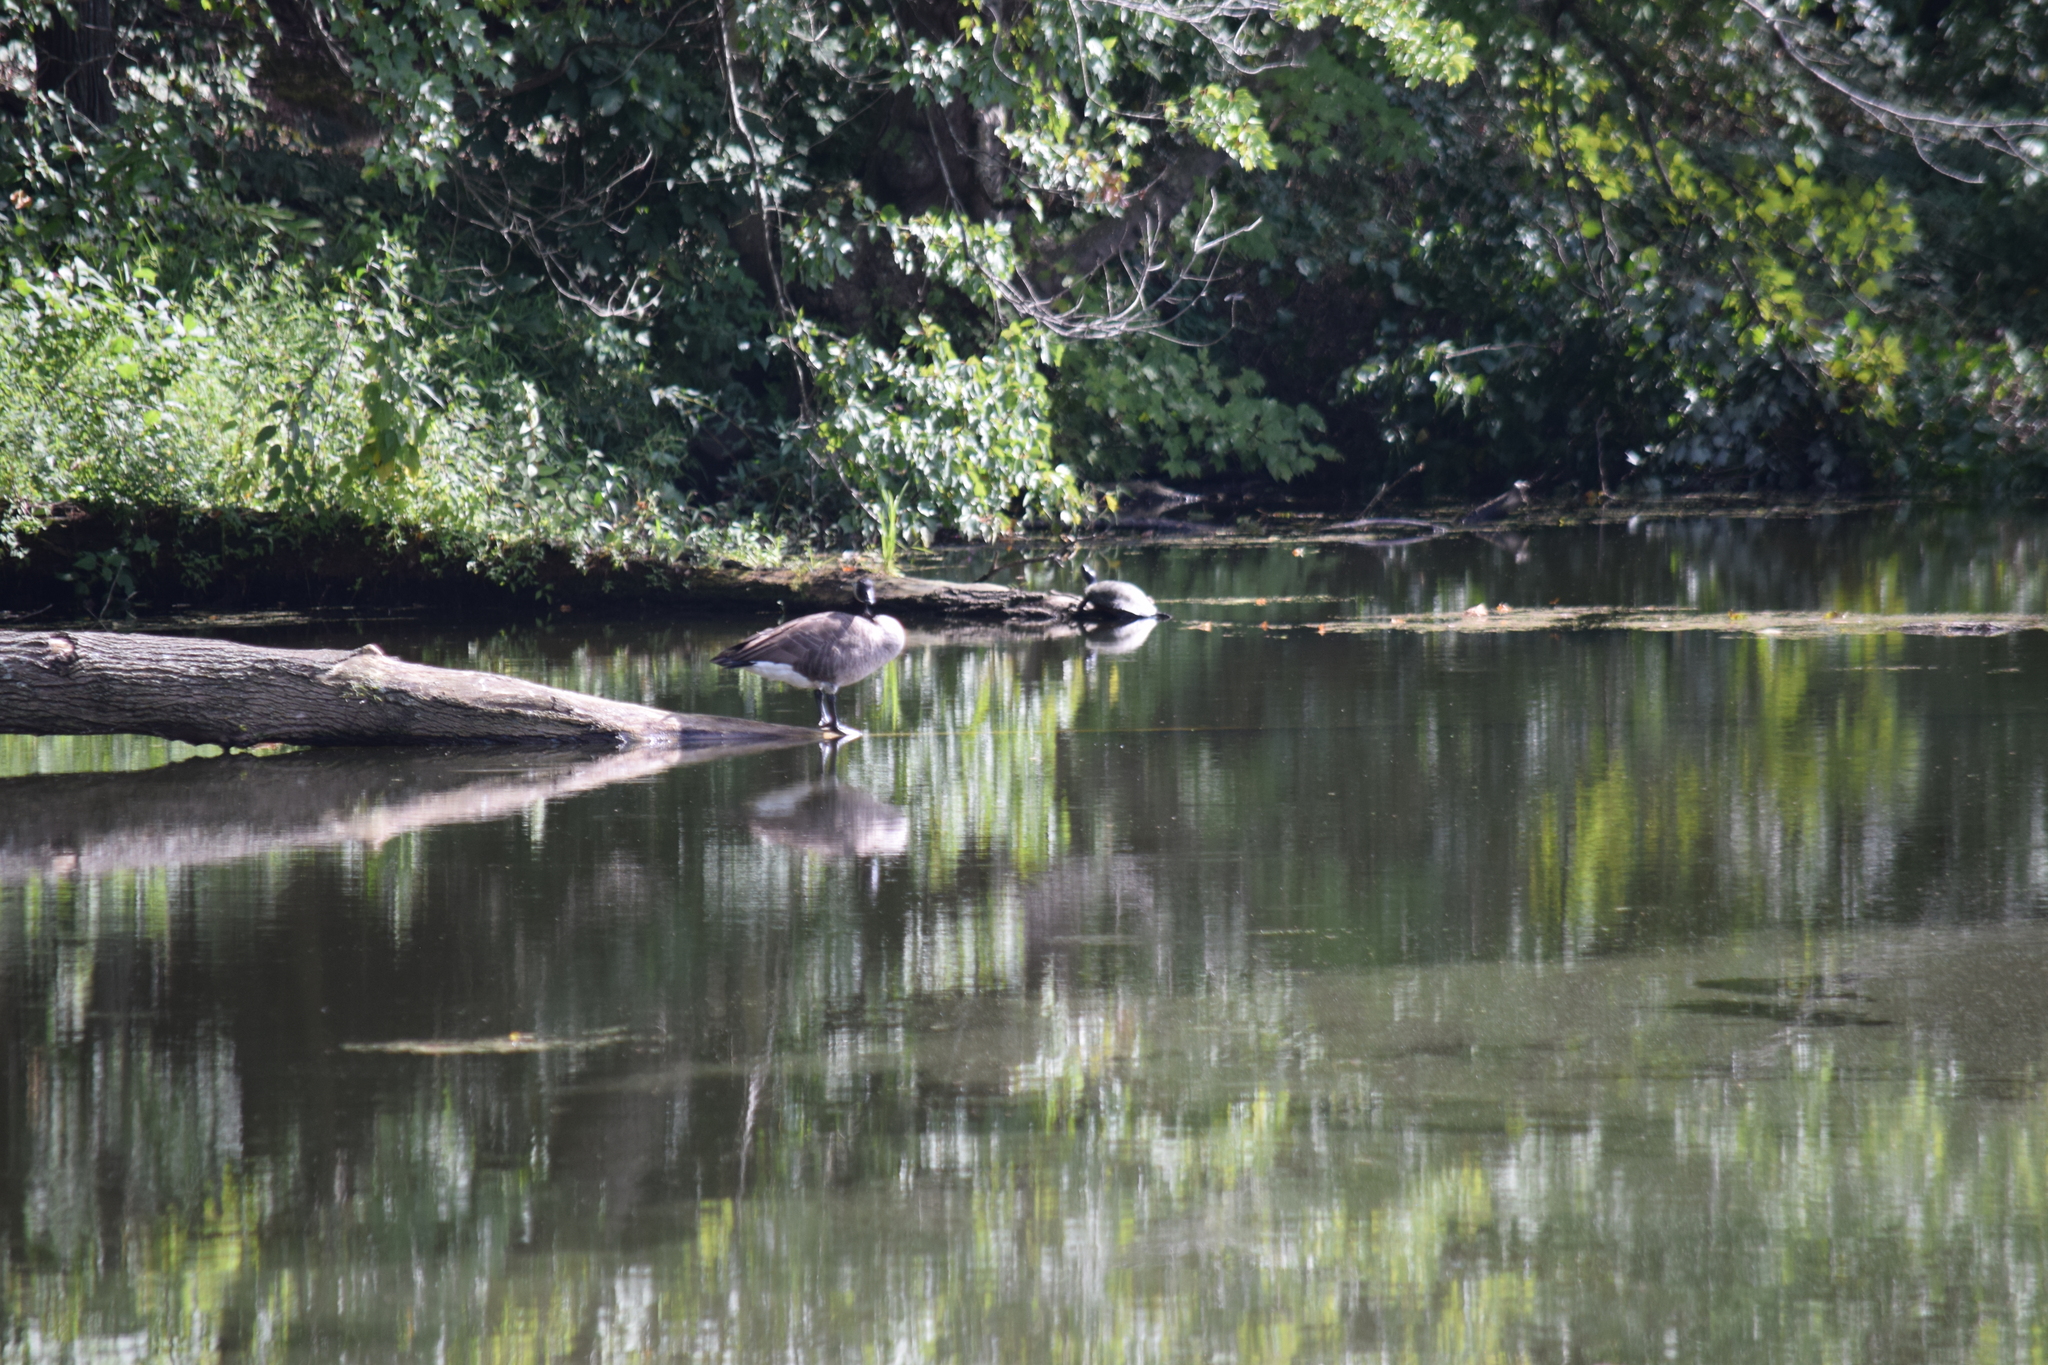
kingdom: Animalia
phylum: Chordata
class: Testudines
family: Emydidae
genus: Pseudemys
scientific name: Pseudemys rubriventris
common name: American red-bellied turtle
